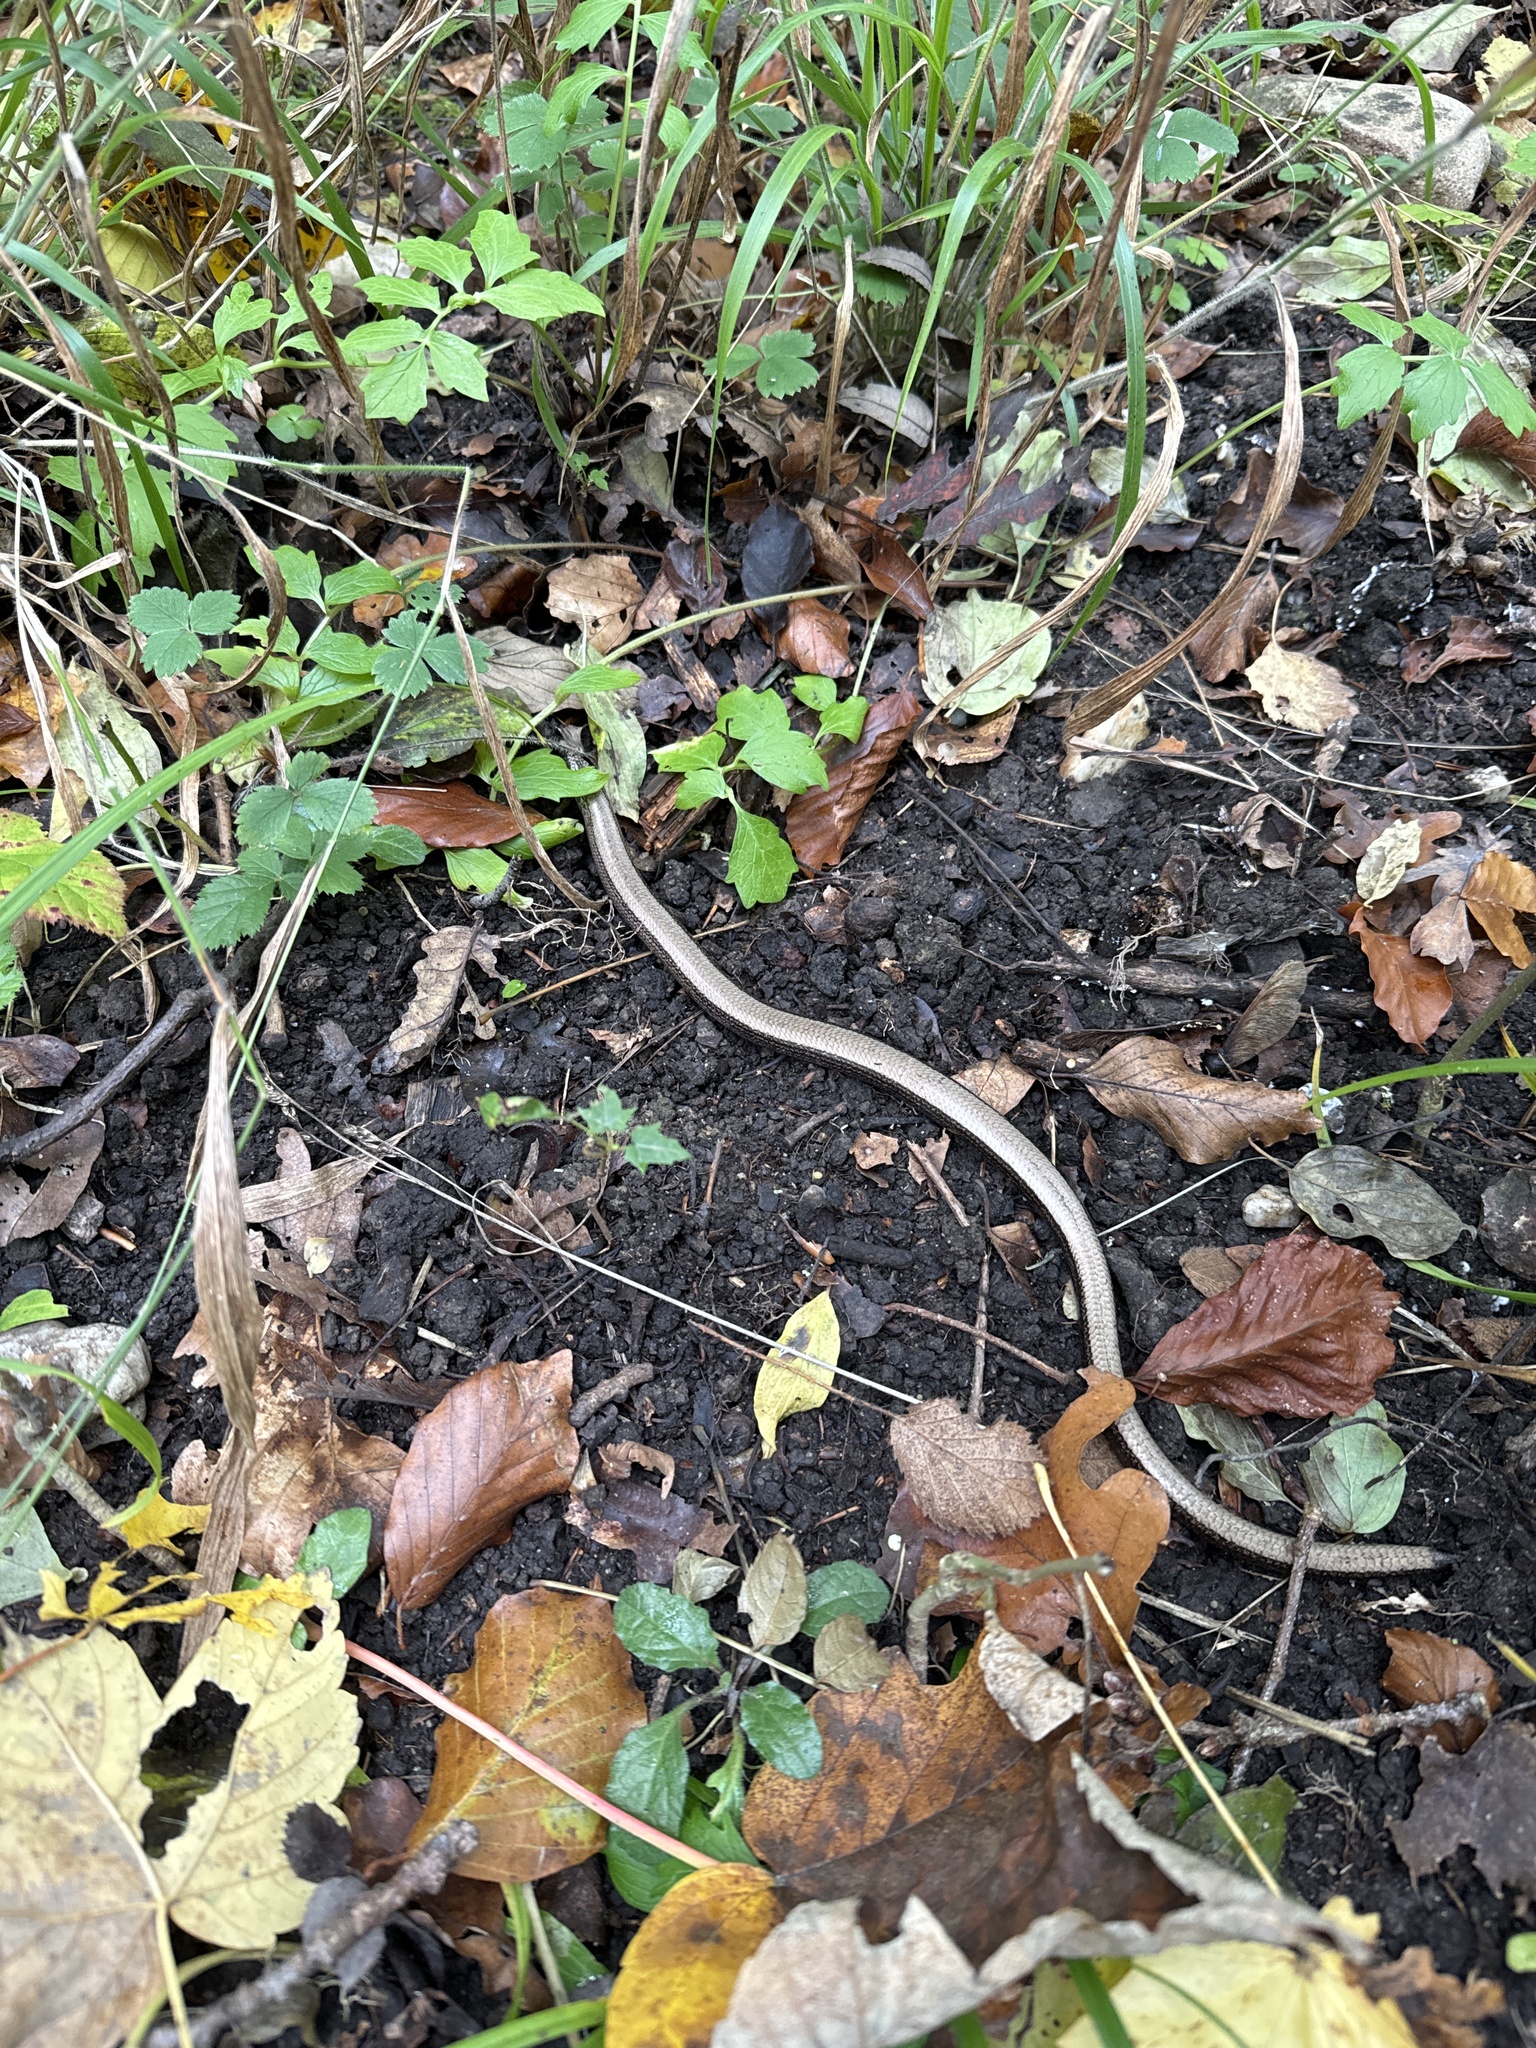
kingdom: Animalia
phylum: Chordata
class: Squamata
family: Anguidae
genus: Anguis
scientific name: Anguis fragilis
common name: Slow worm
